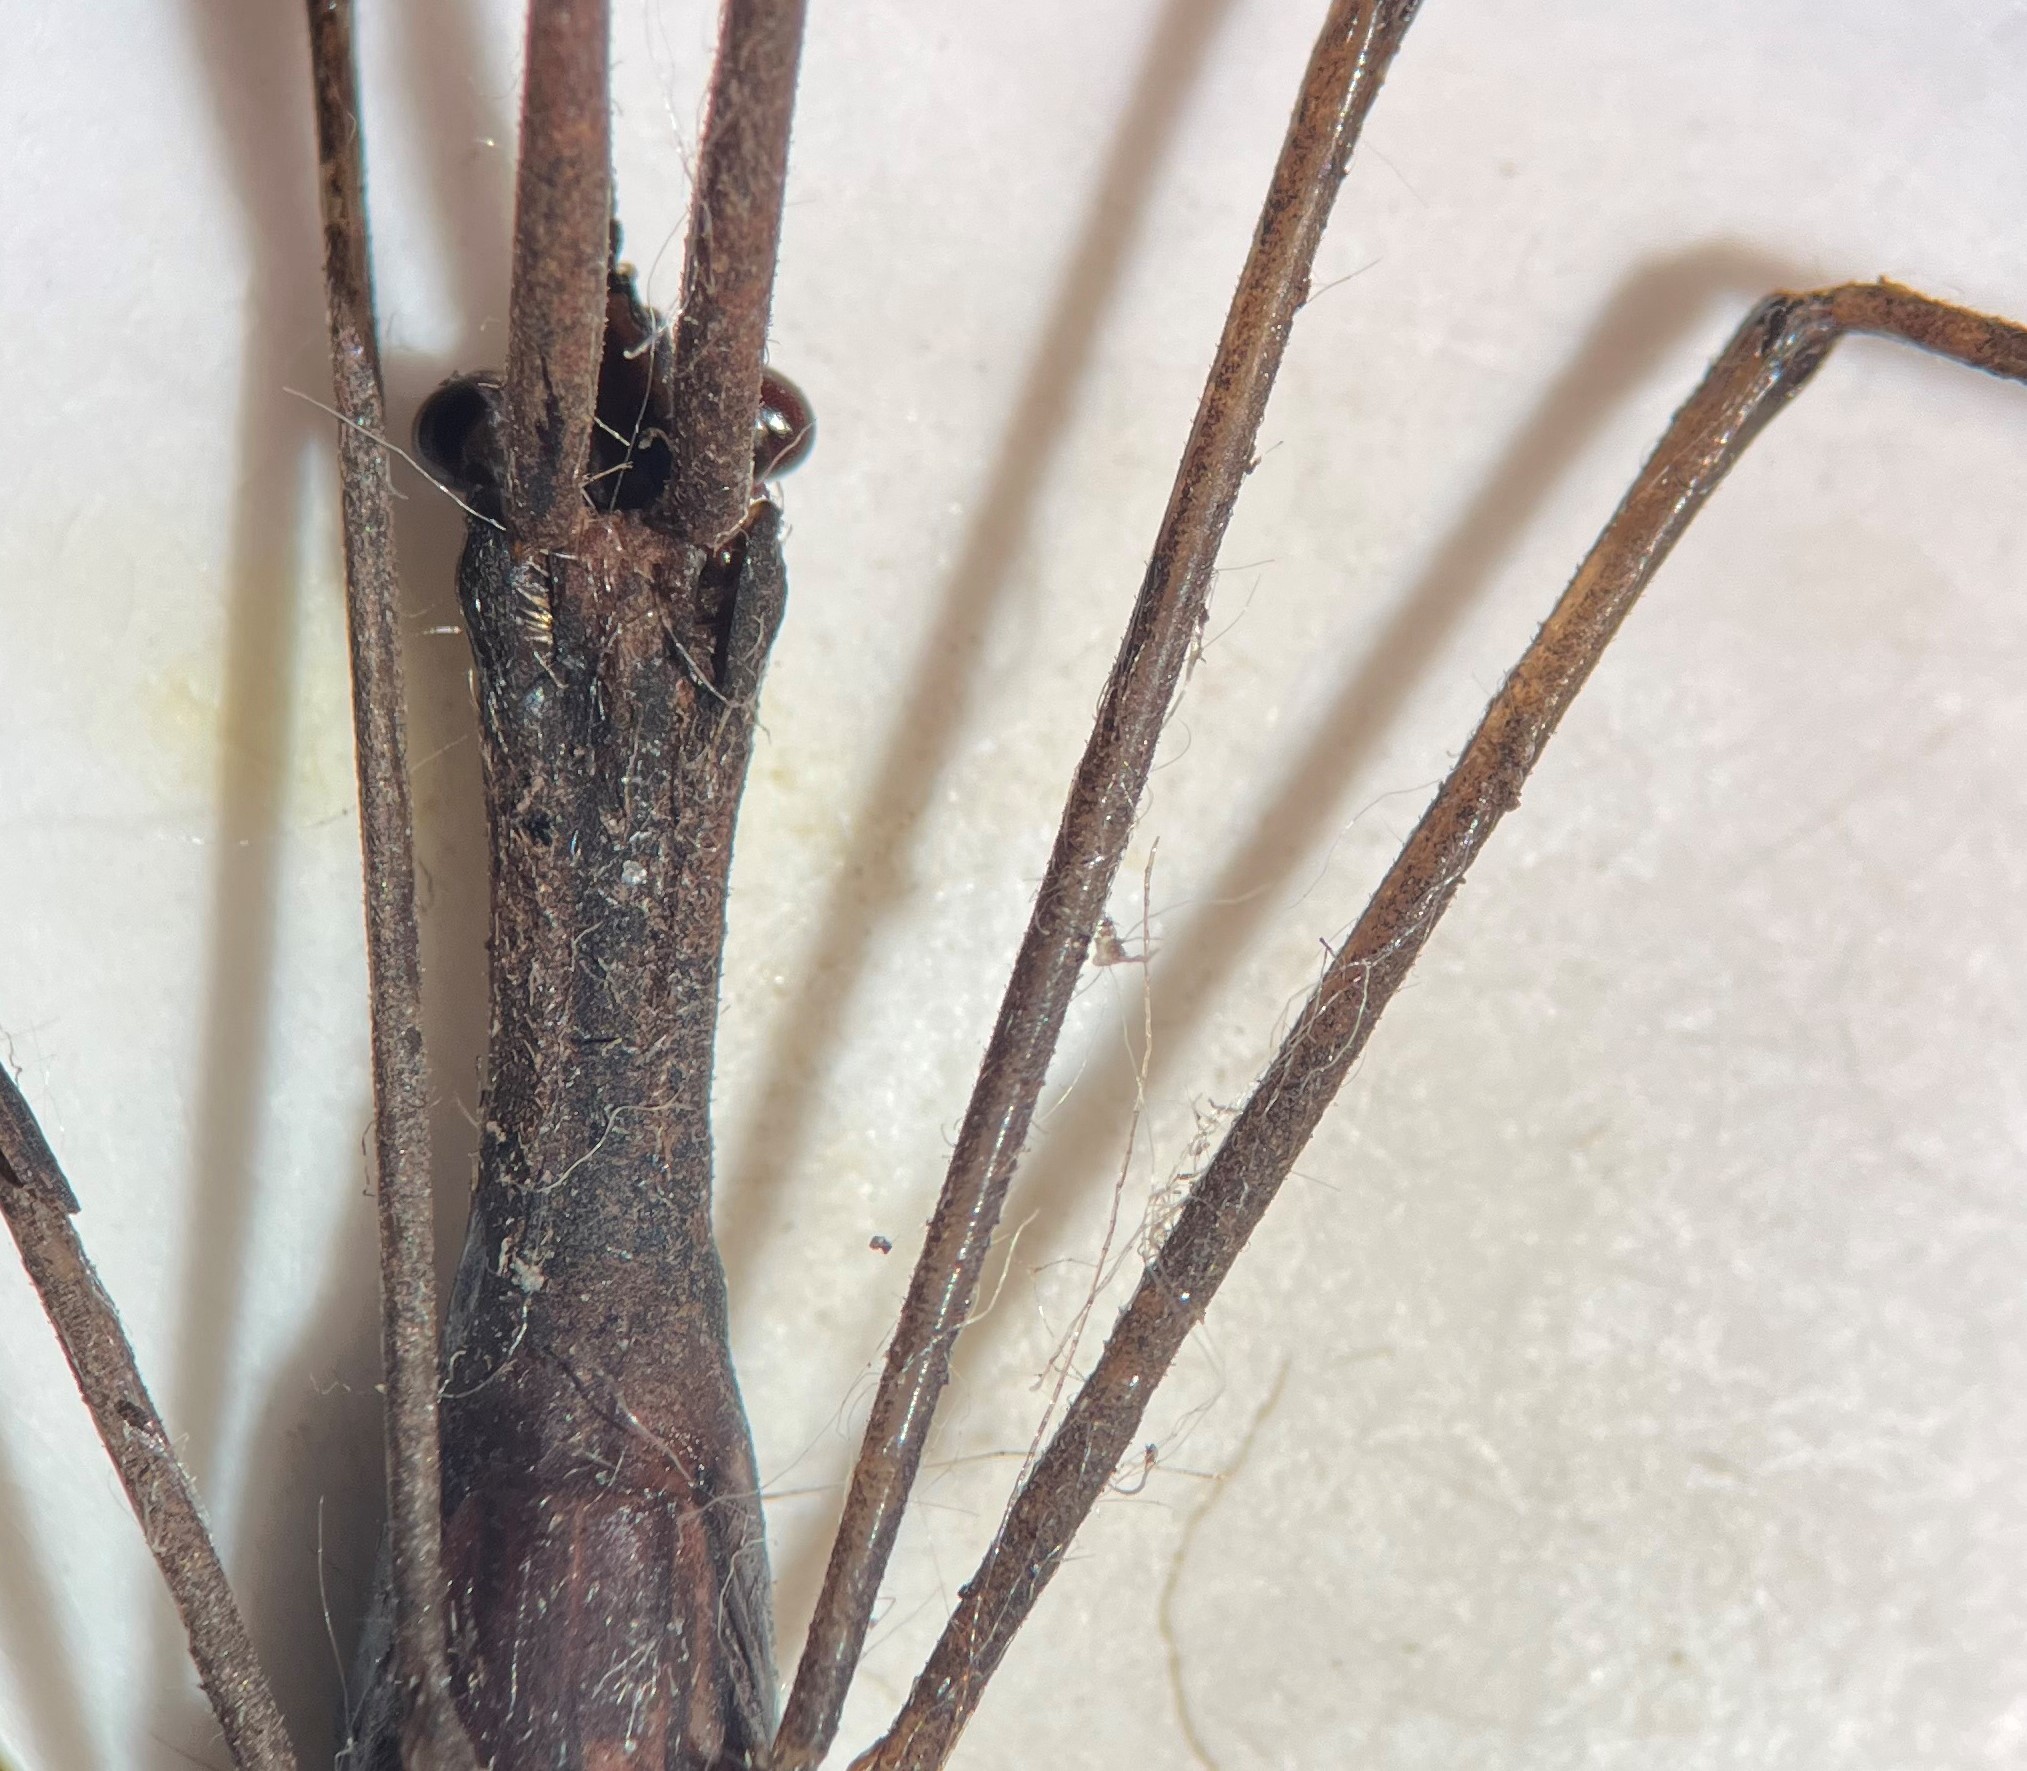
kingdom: Animalia
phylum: Arthropoda
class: Insecta
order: Hemiptera
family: Nepidae
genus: Ranatra
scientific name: Ranatra australis
